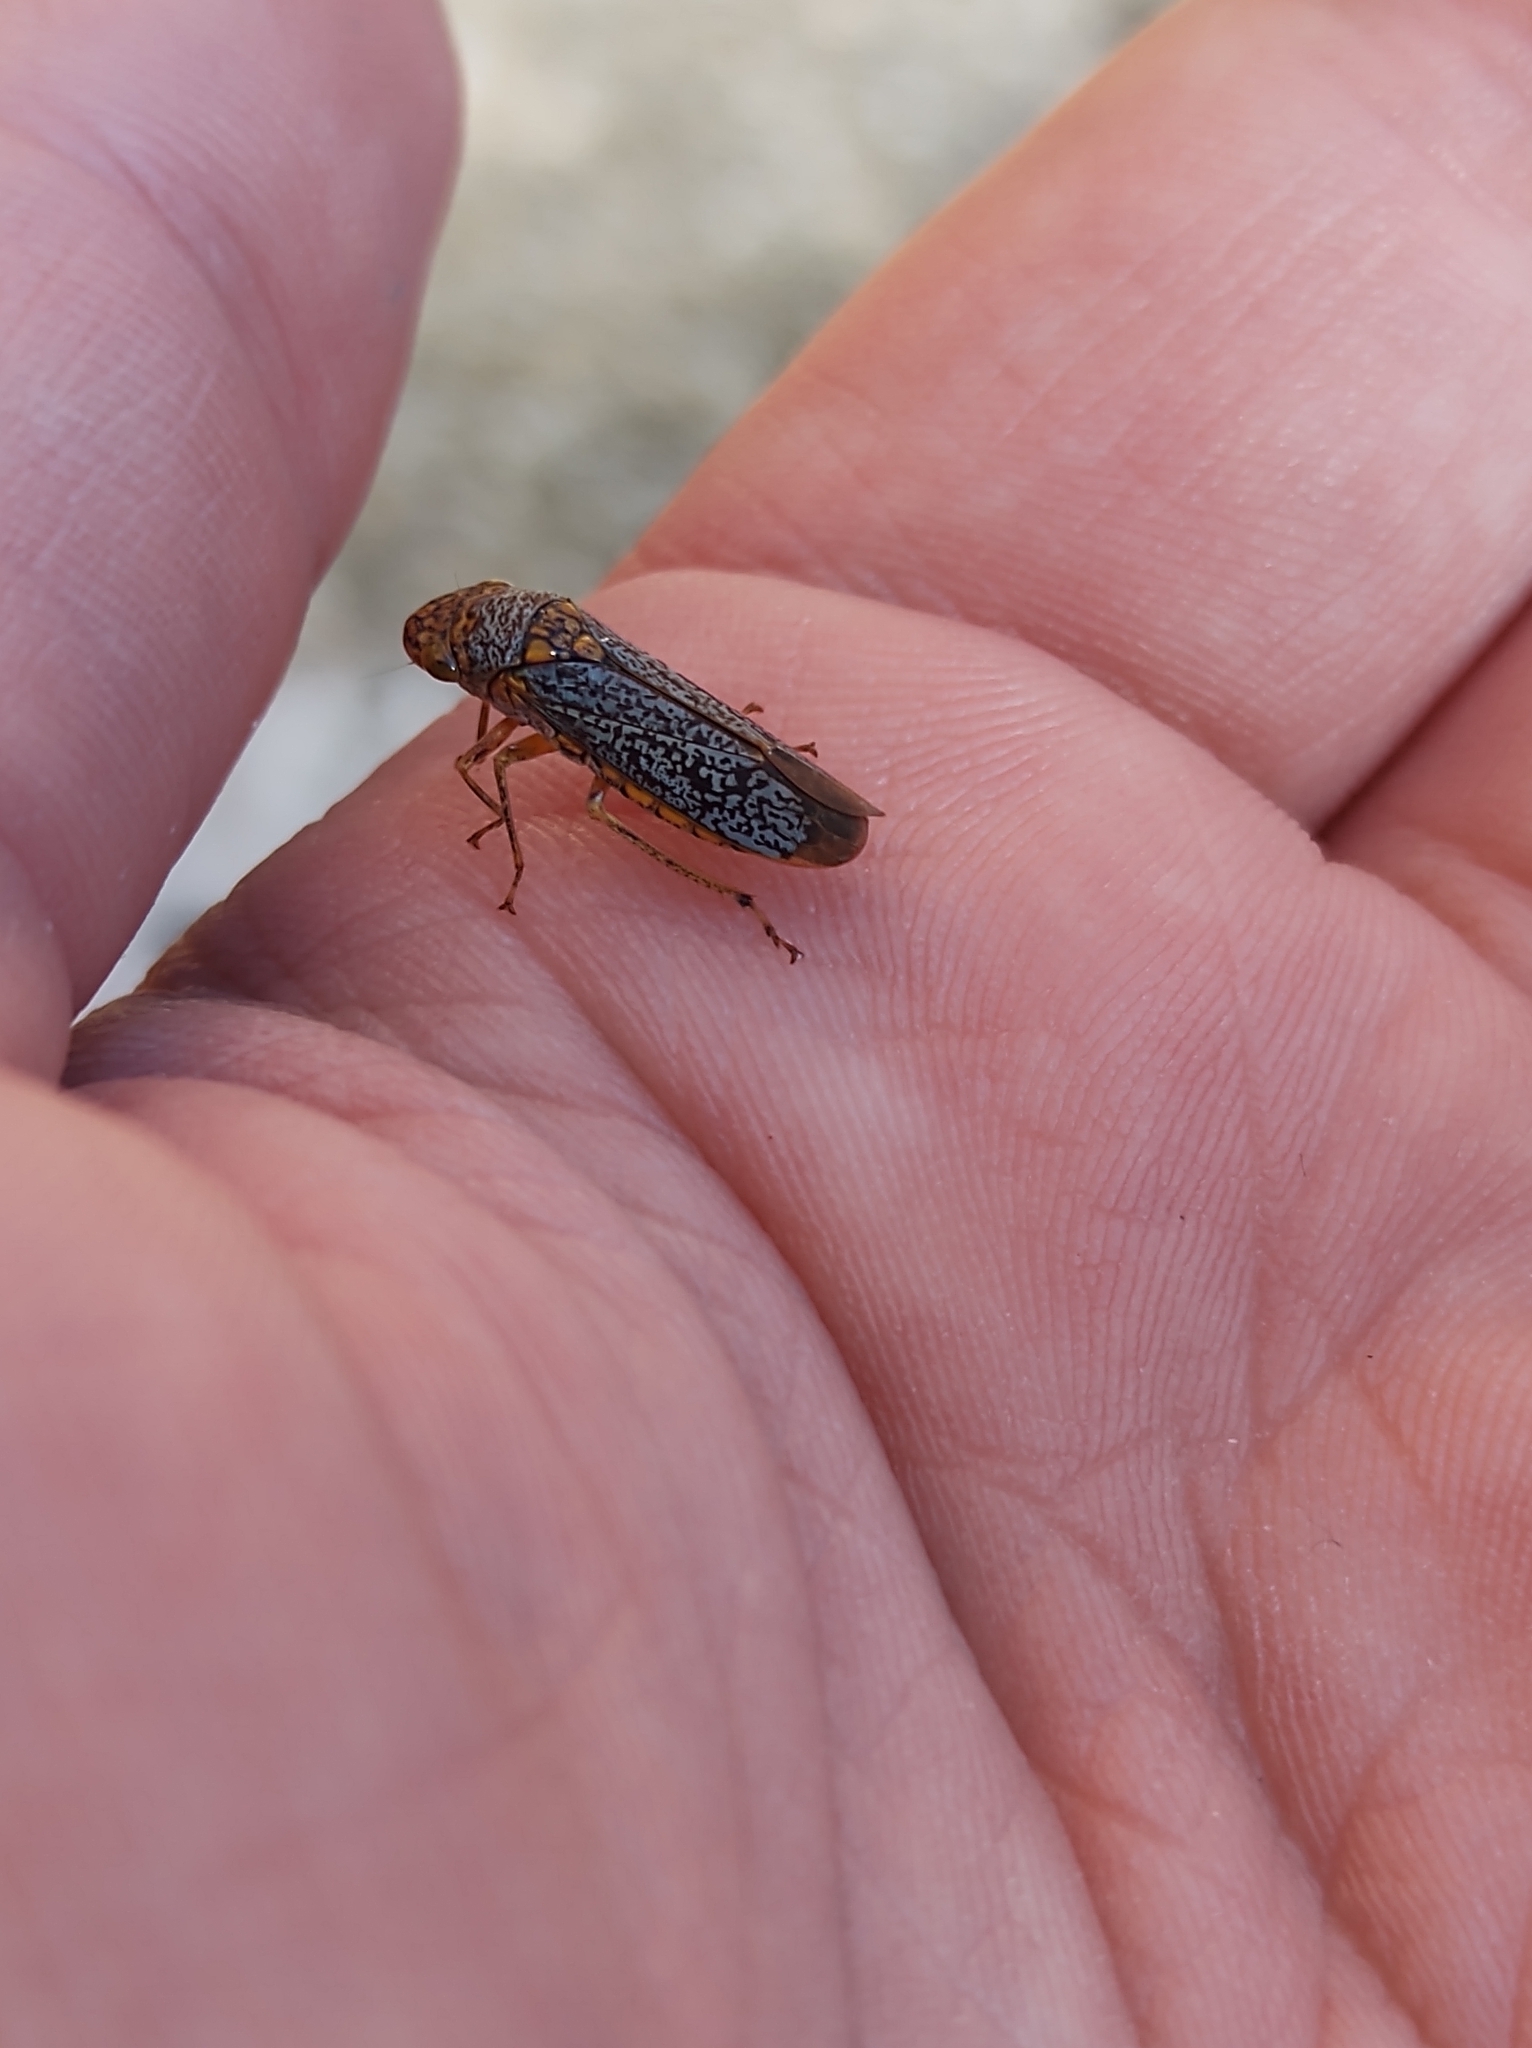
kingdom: Animalia
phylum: Arthropoda
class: Insecta
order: Hemiptera
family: Cicadellidae
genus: Oncometopia
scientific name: Oncometopia orbona
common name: Broad-headed sharpshooter
